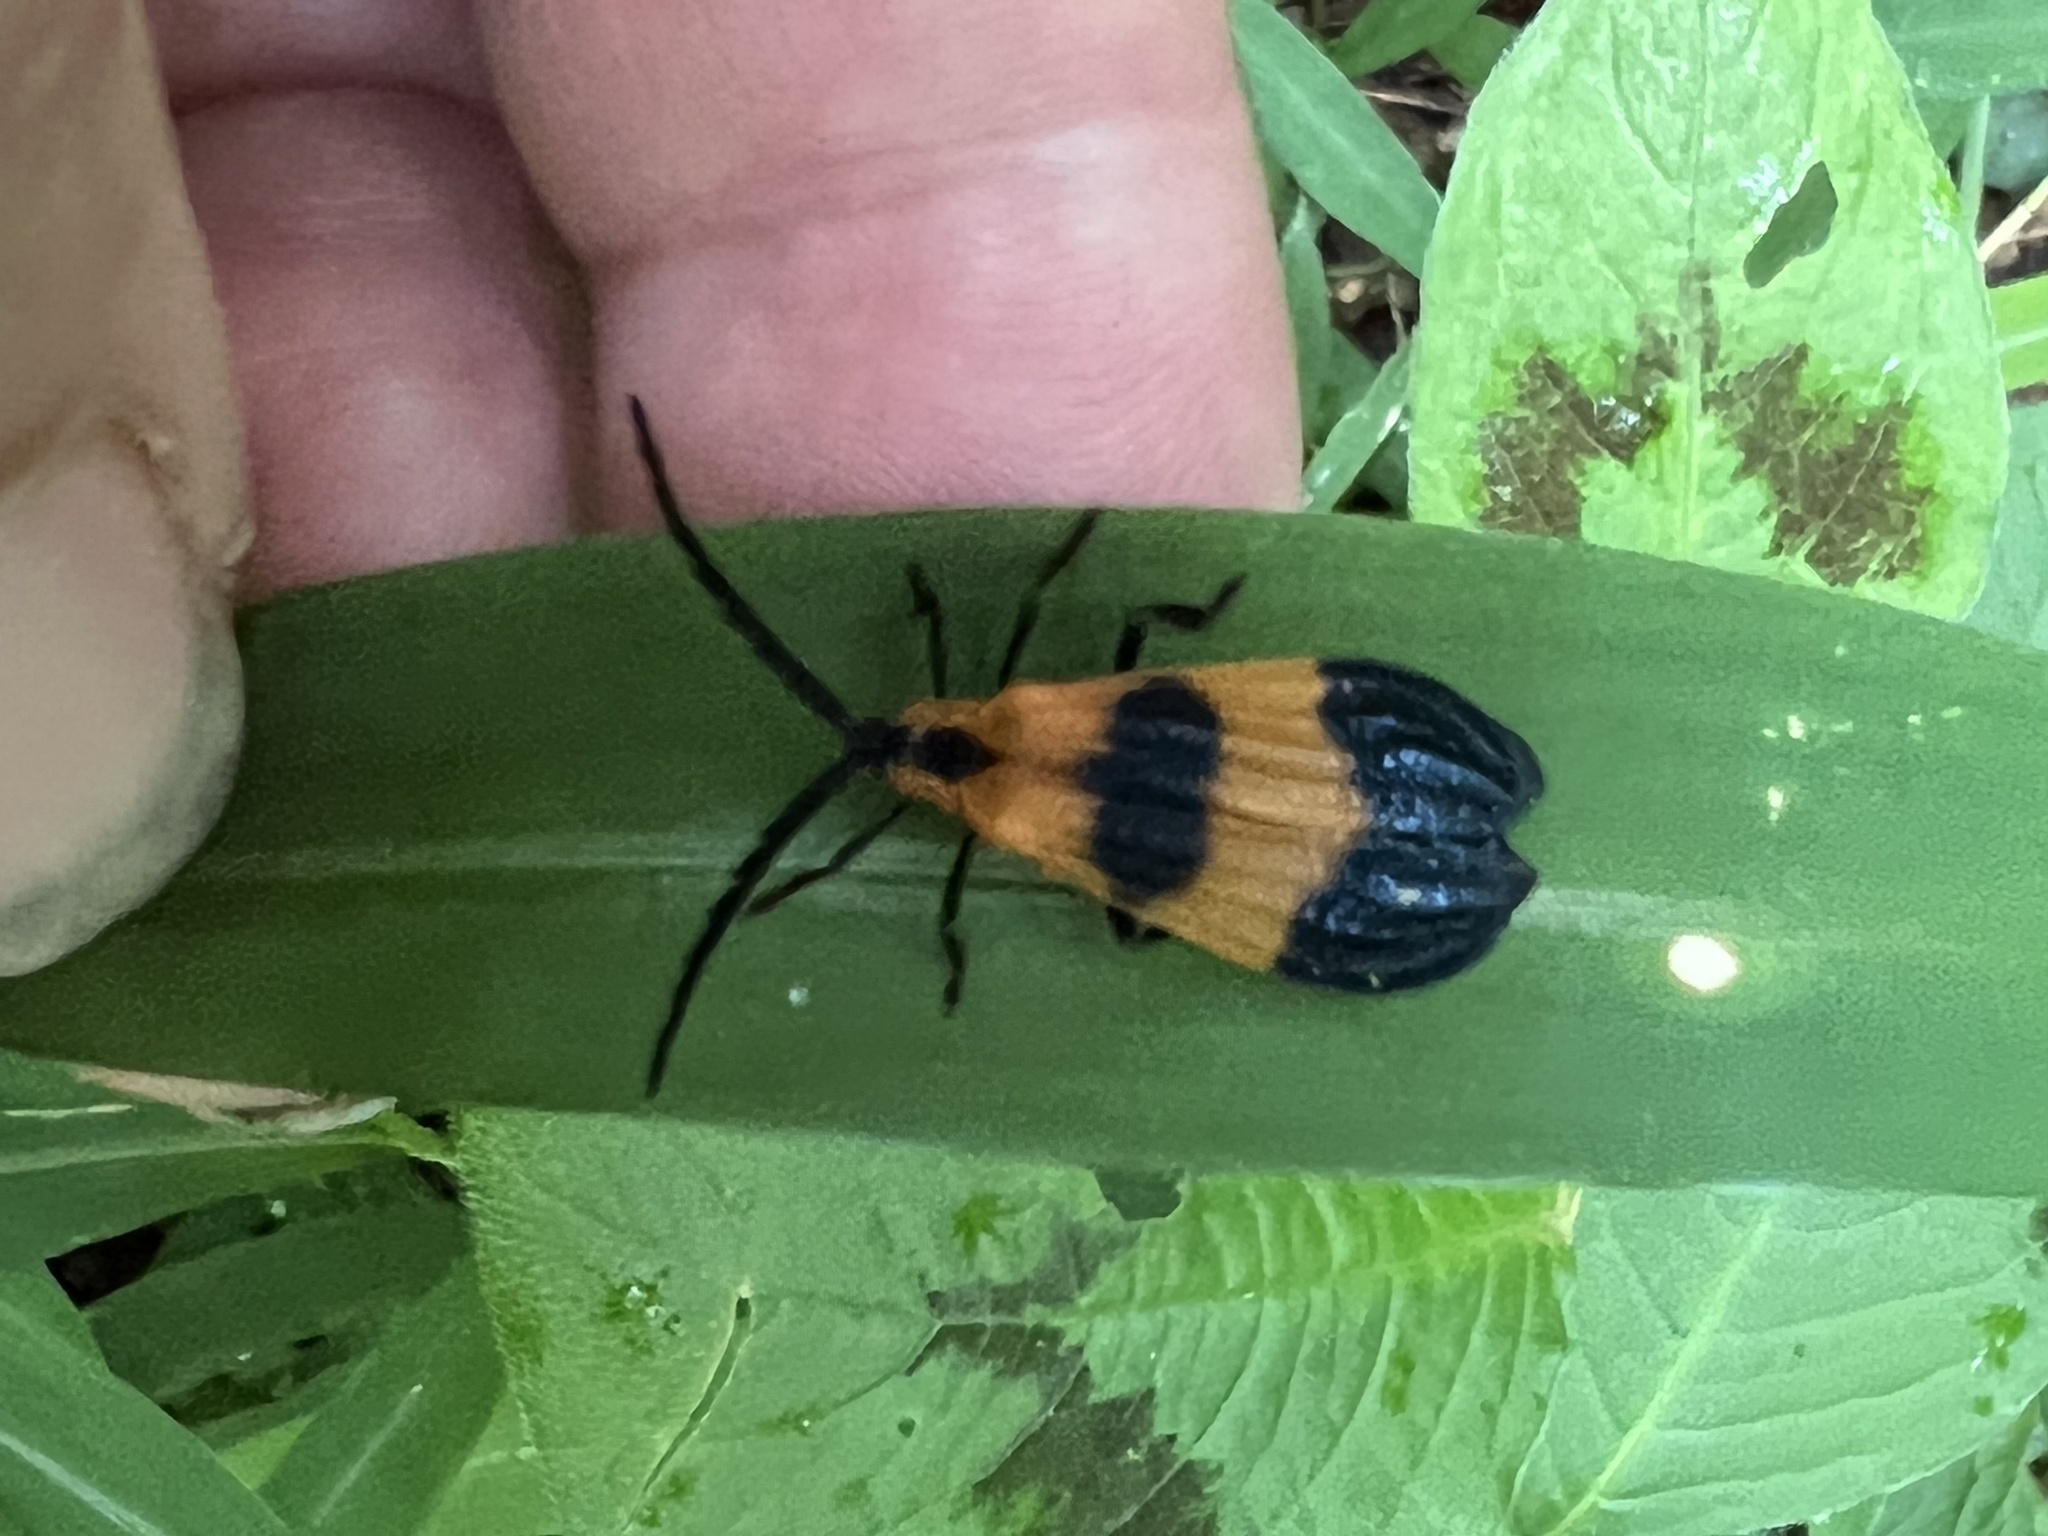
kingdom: Animalia
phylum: Arthropoda
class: Insecta
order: Coleoptera
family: Lycidae
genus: Calopteron
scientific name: Calopteron terminale
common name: End band net-winged beetle
